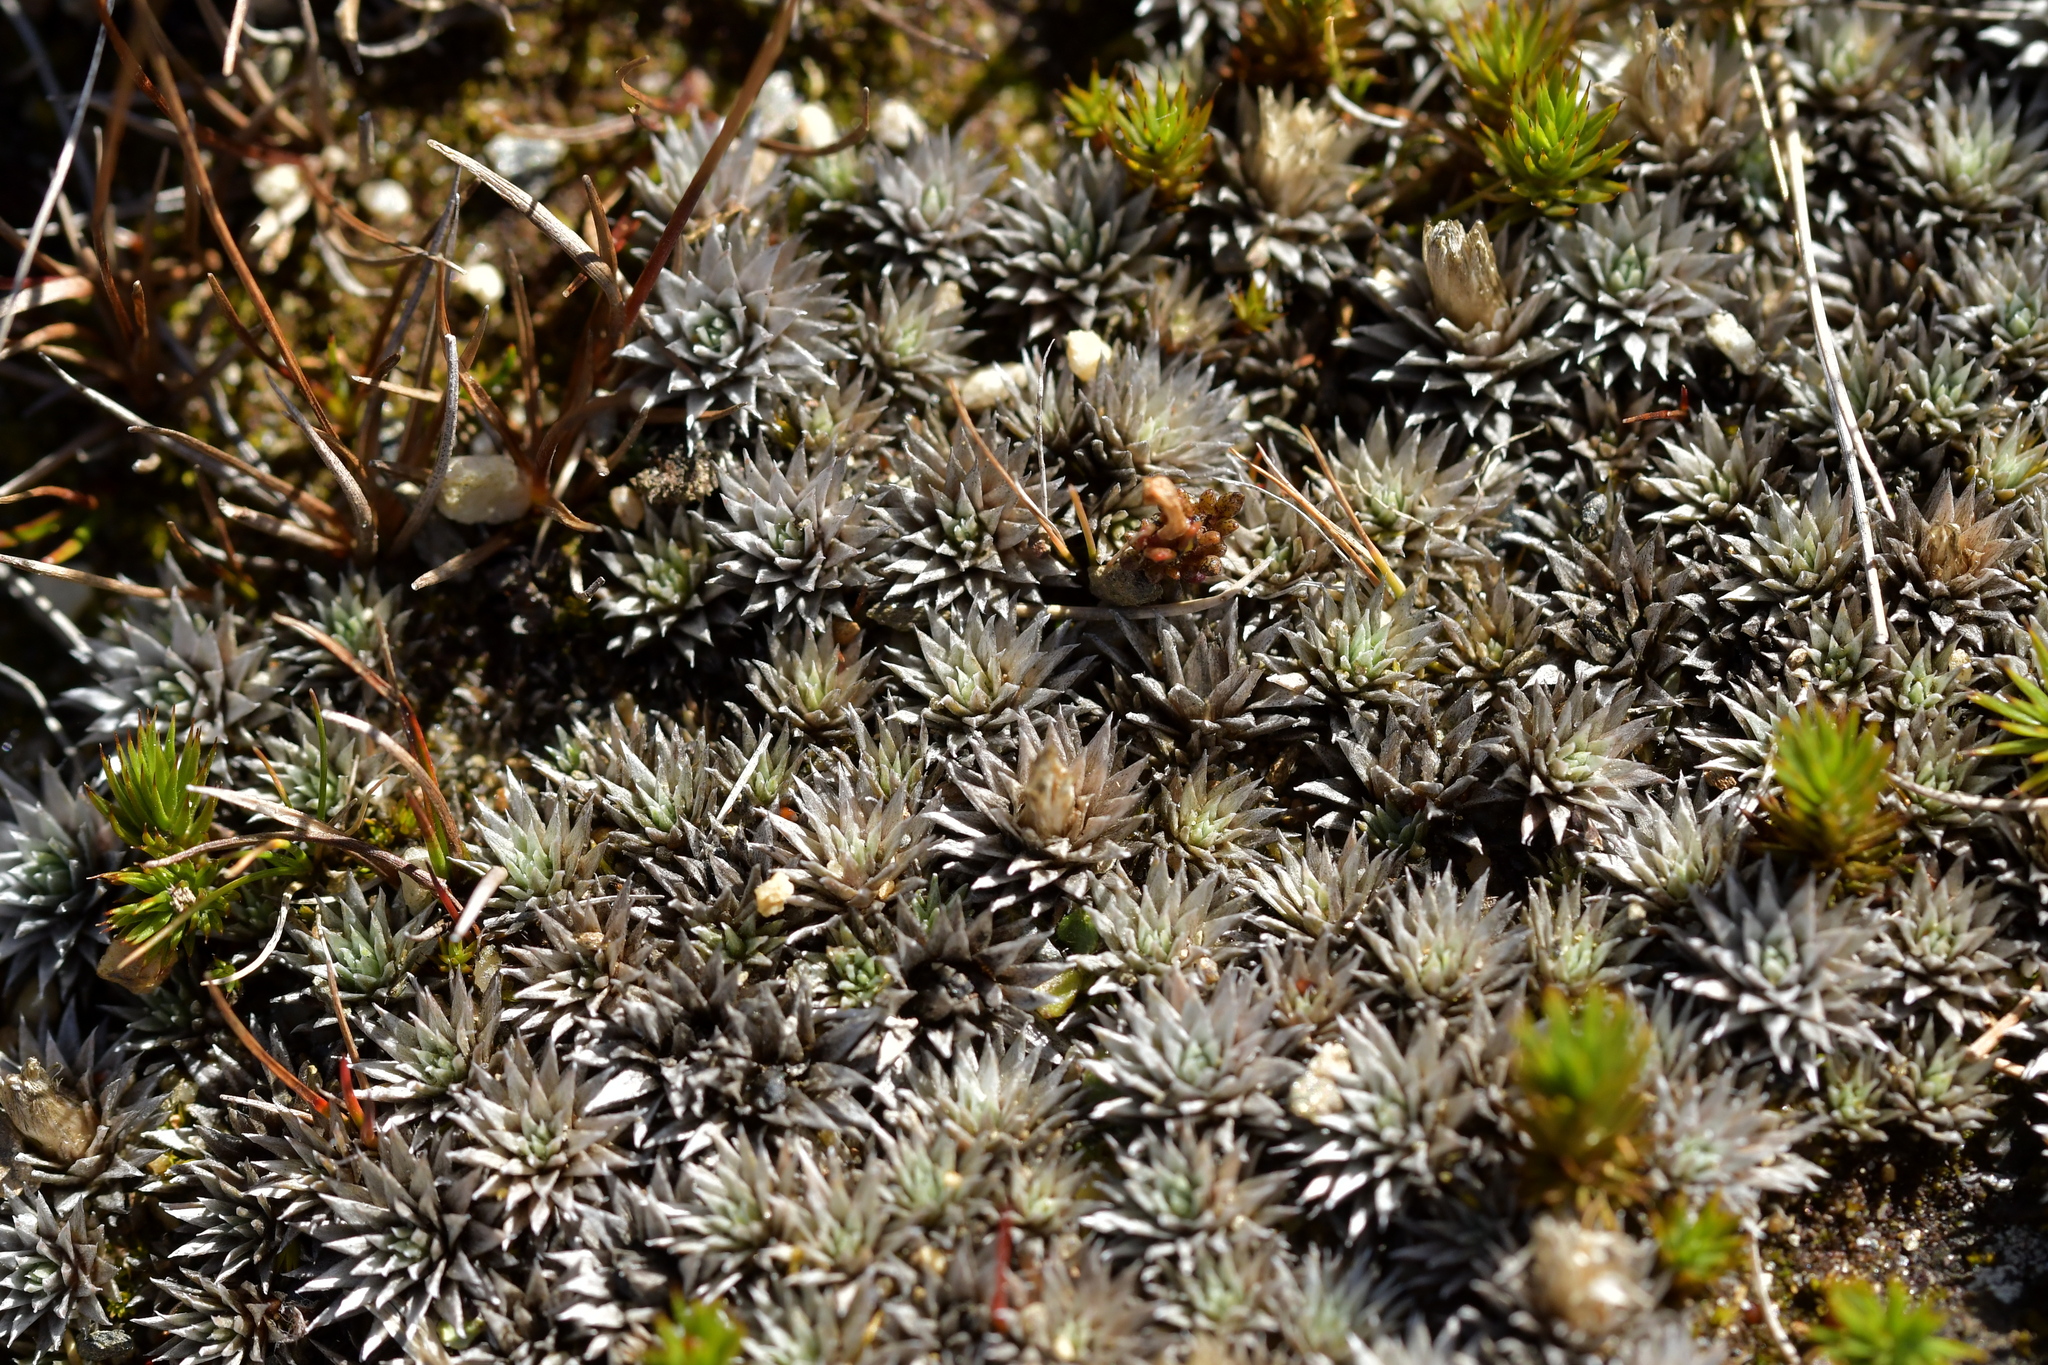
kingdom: Plantae
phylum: Tracheophyta
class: Magnoliopsida
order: Asterales
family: Asteraceae
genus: Raoulia
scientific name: Raoulia grandiflora
